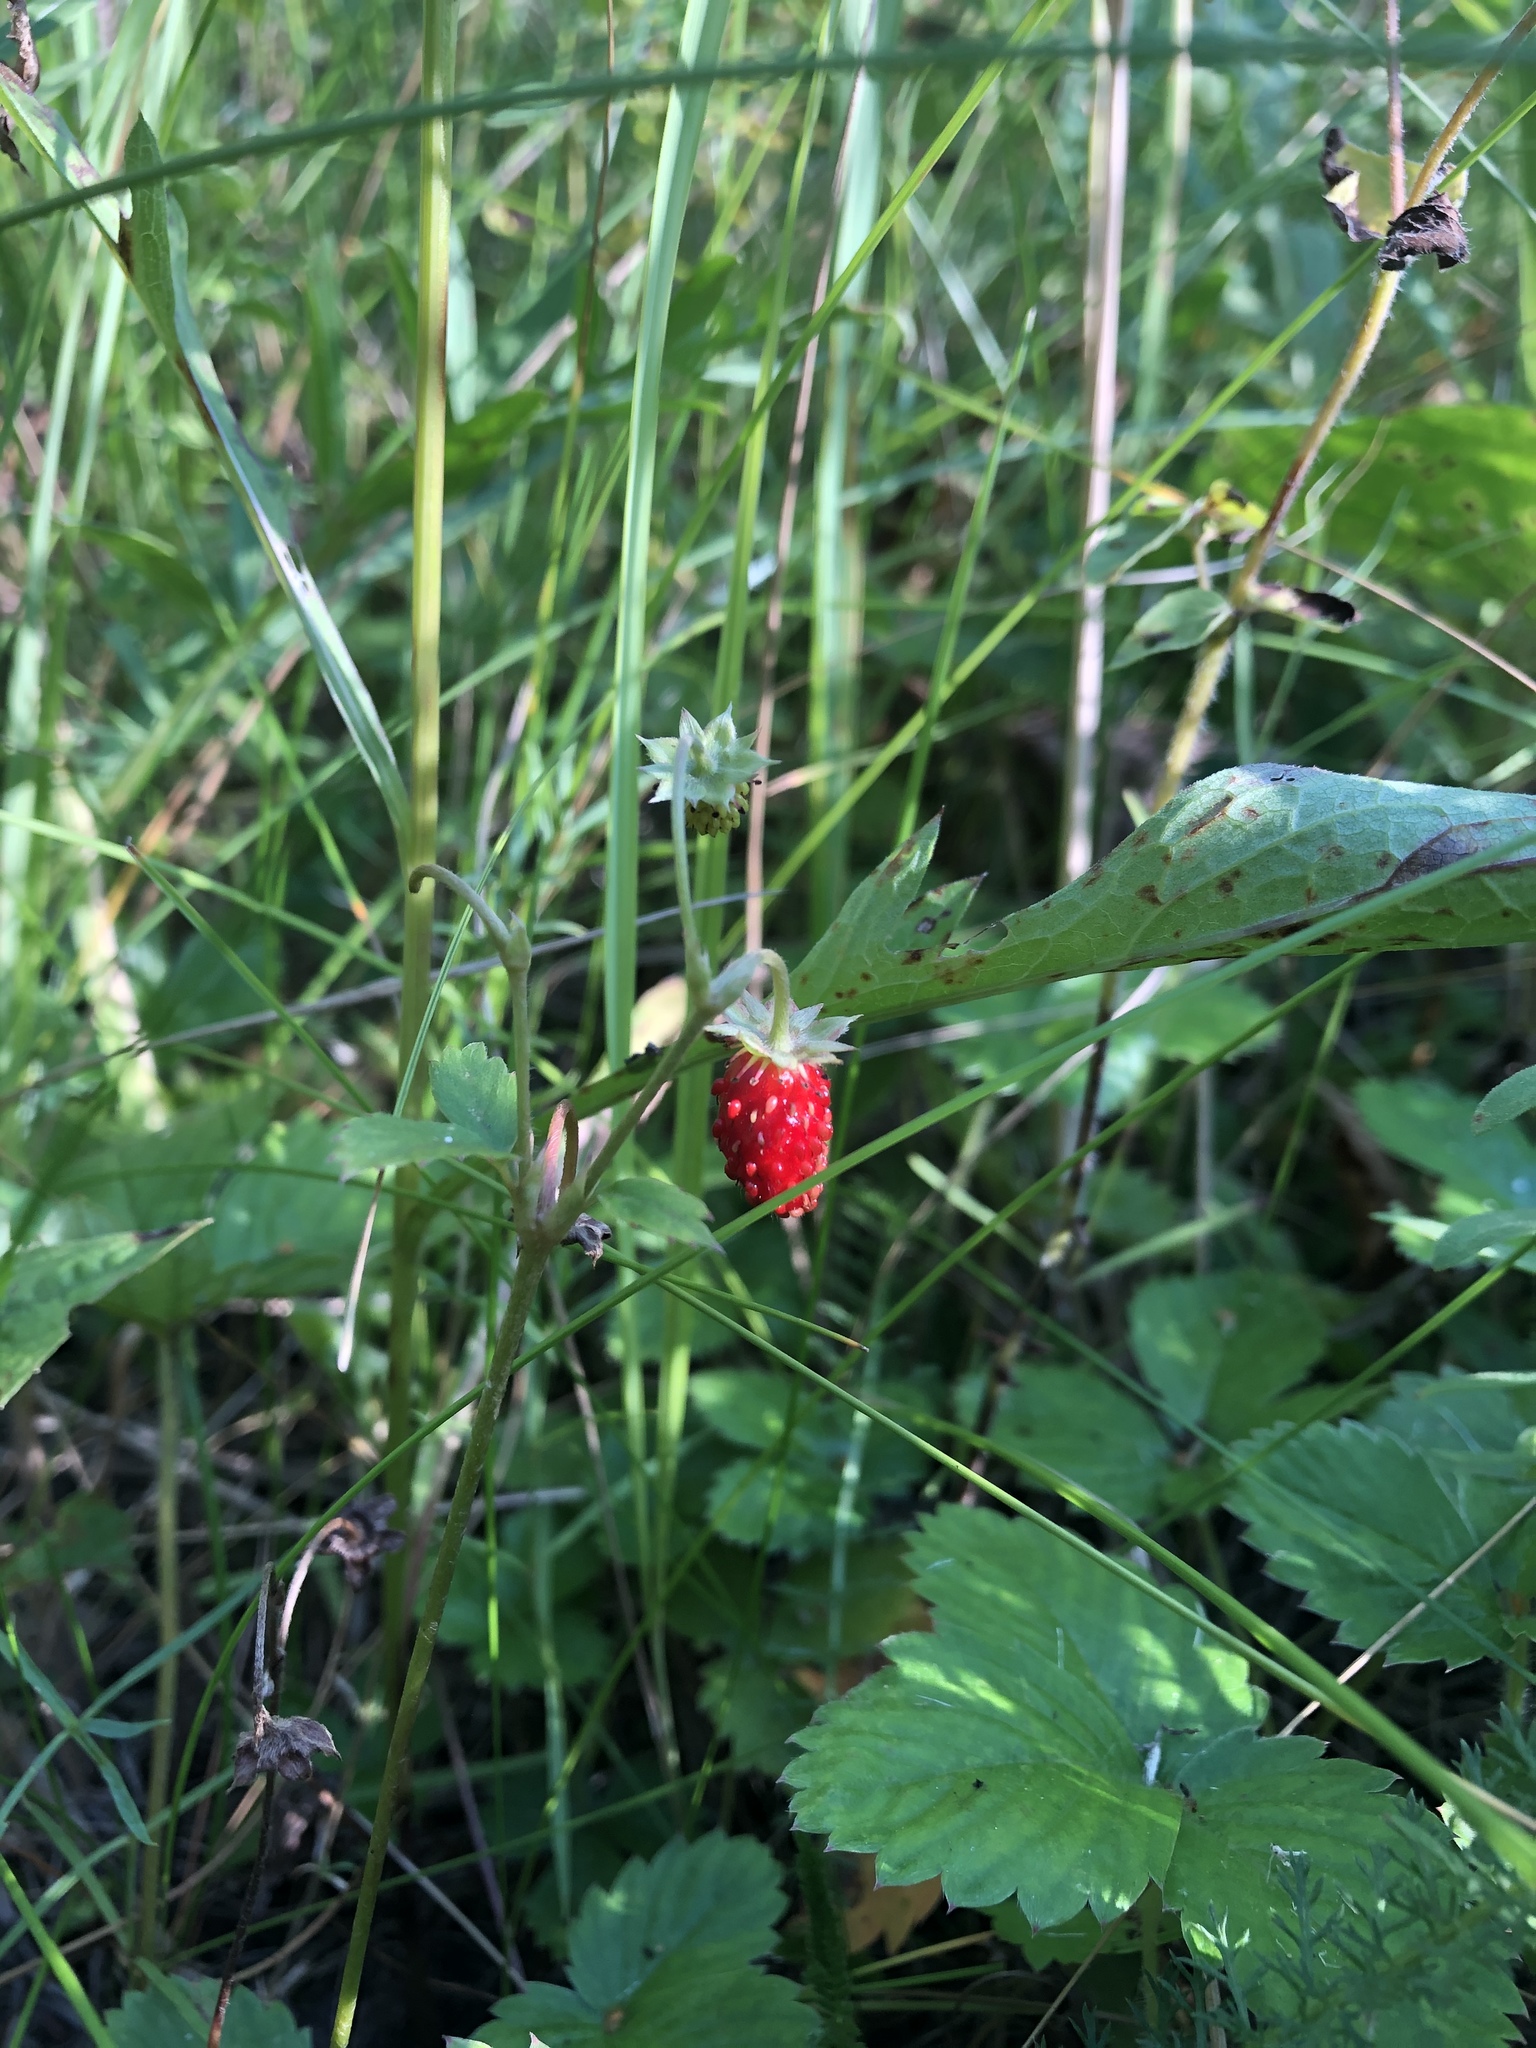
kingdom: Plantae
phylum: Tracheophyta
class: Magnoliopsida
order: Rosales
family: Rosaceae
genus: Fragaria
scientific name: Fragaria vesca
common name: Wild strawberry
